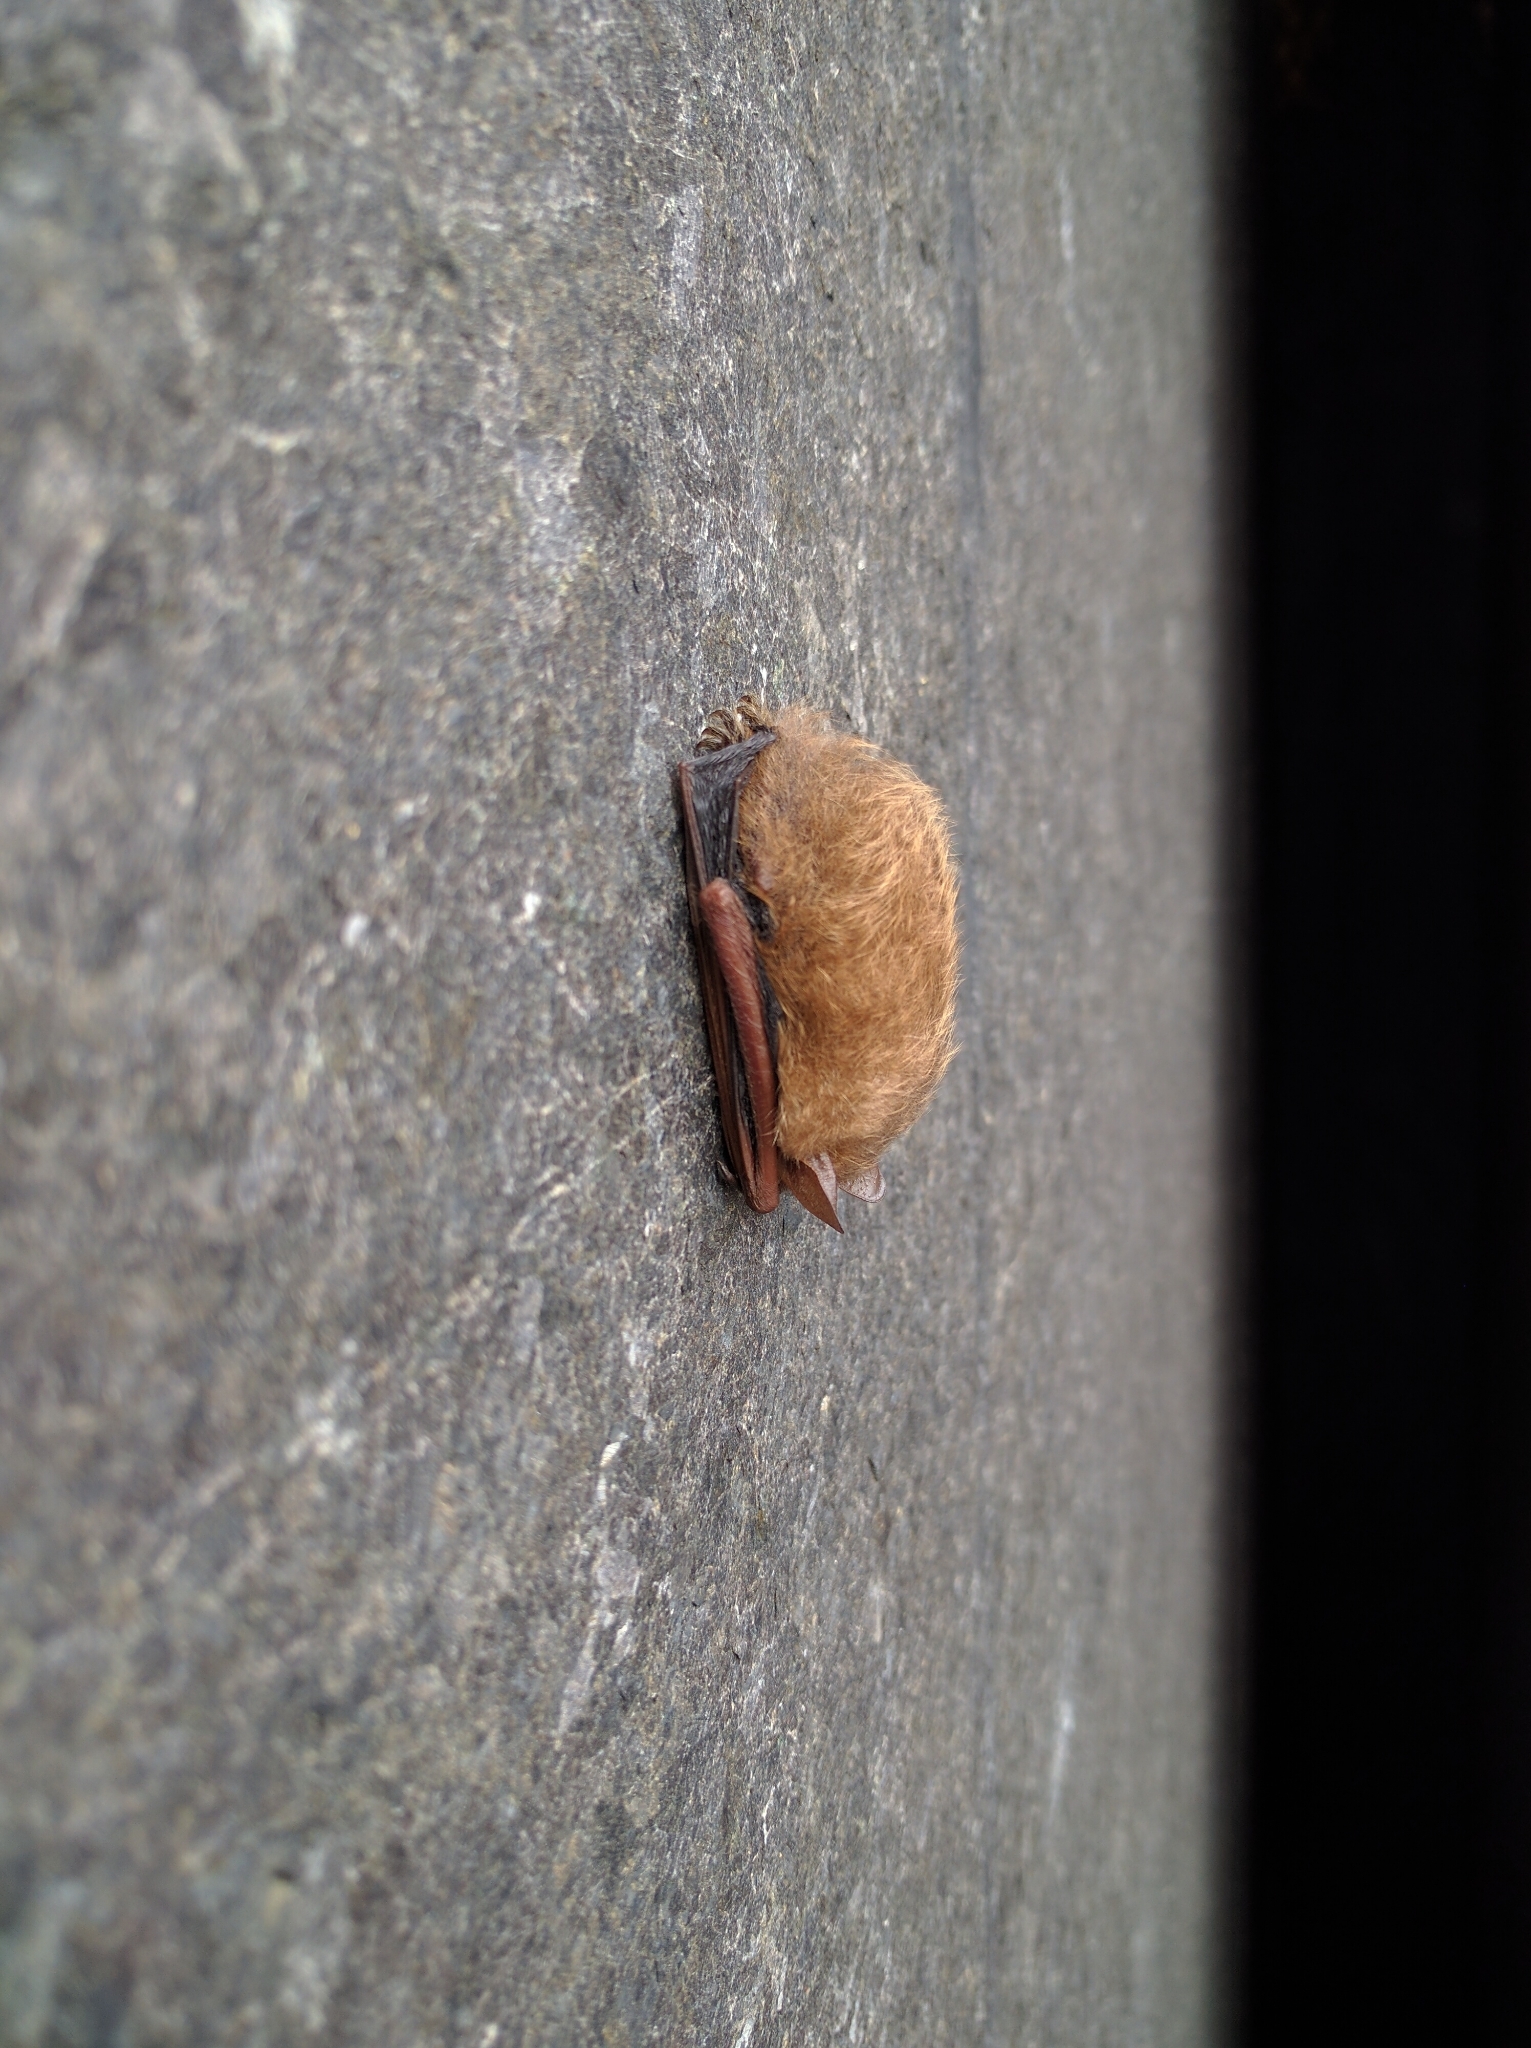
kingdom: Animalia
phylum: Chordata
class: Mammalia
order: Chiroptera
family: Vespertilionidae
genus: Perimyotis
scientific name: Perimyotis subflavus
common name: Eastern pipistrelle
